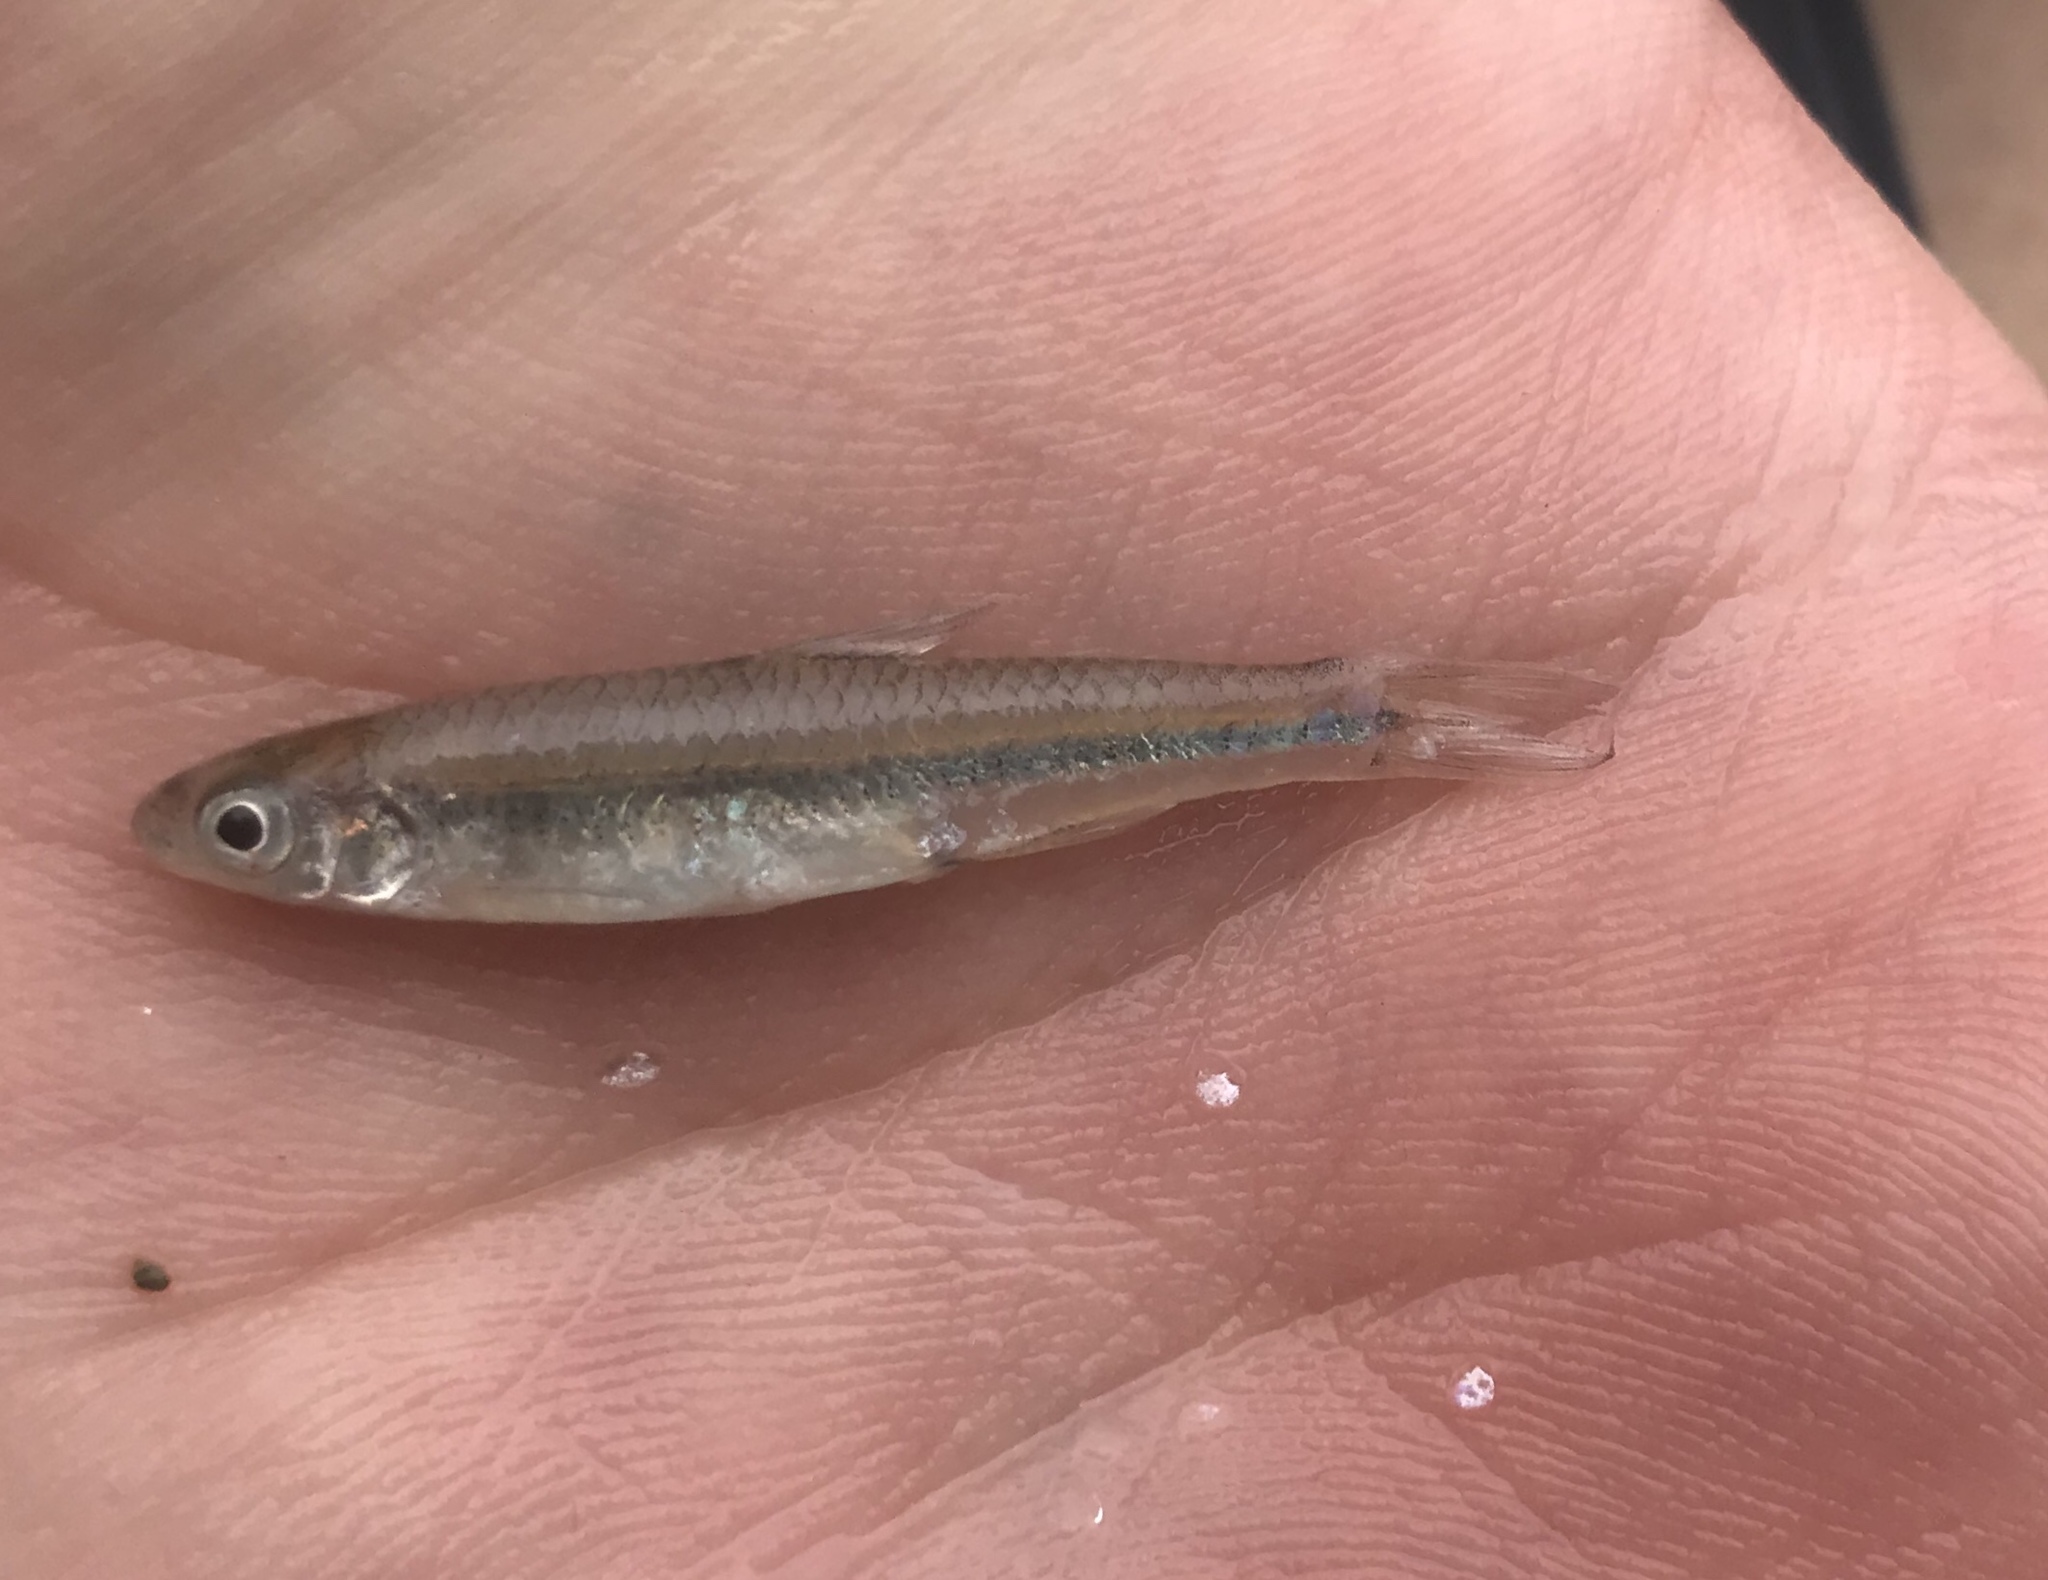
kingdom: Animalia
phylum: Chordata
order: Cypriniformes
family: Cyprinidae
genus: Notropis
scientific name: Notropis
